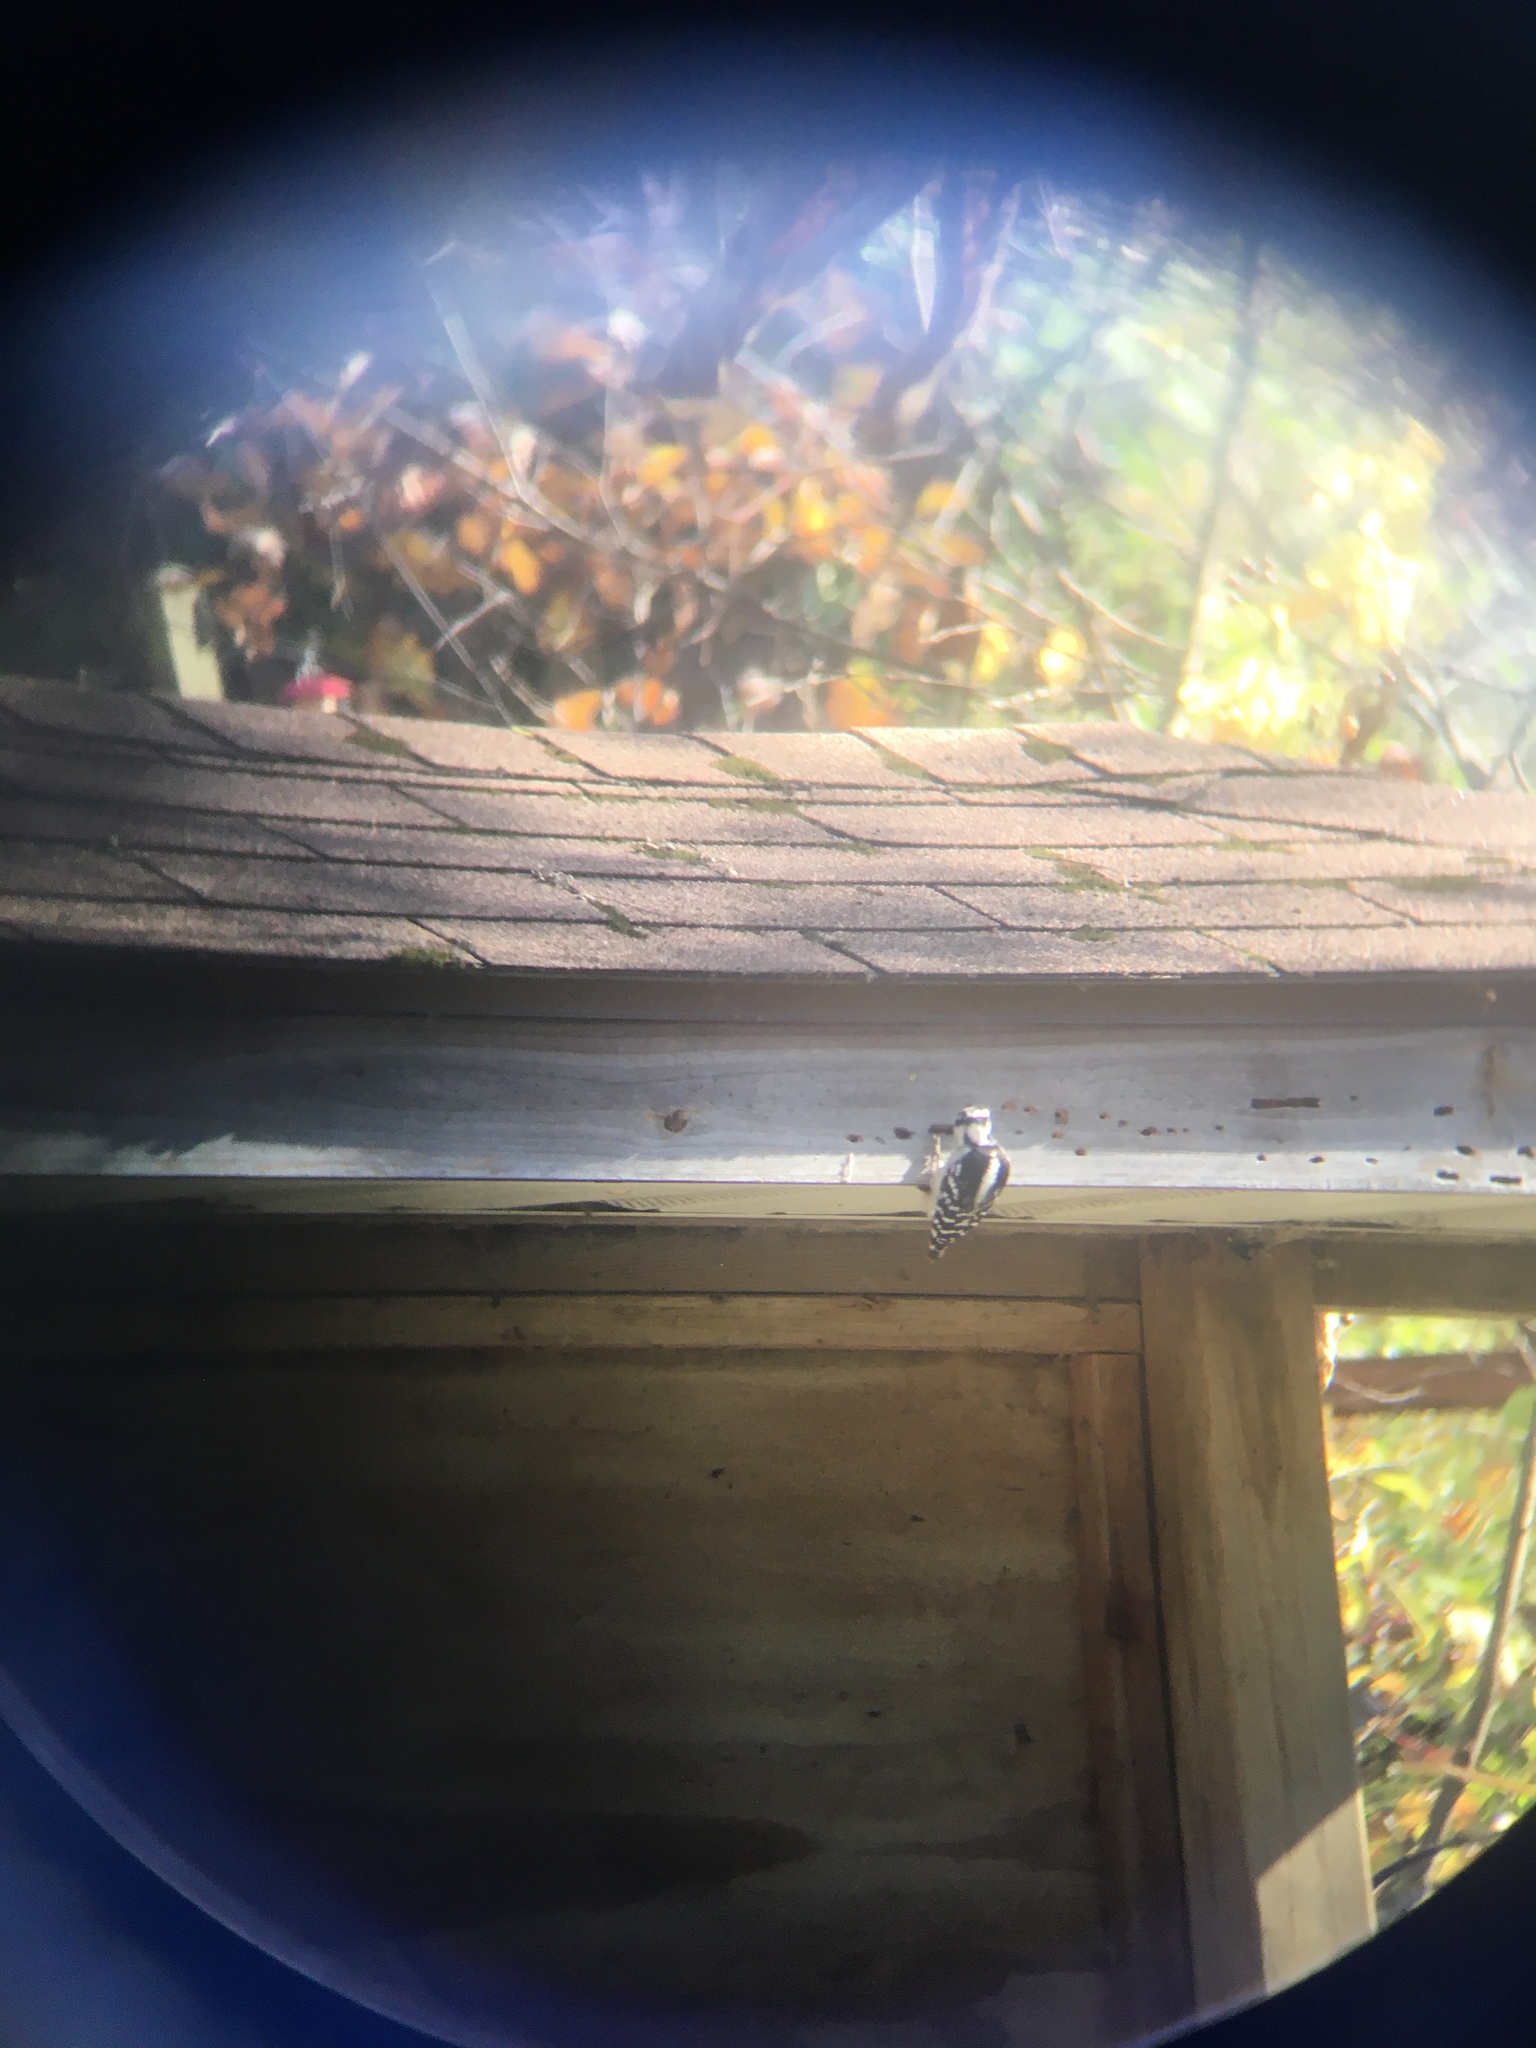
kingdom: Animalia
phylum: Chordata
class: Aves
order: Piciformes
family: Picidae
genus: Dryobates
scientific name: Dryobates pubescens
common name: Downy woodpecker
